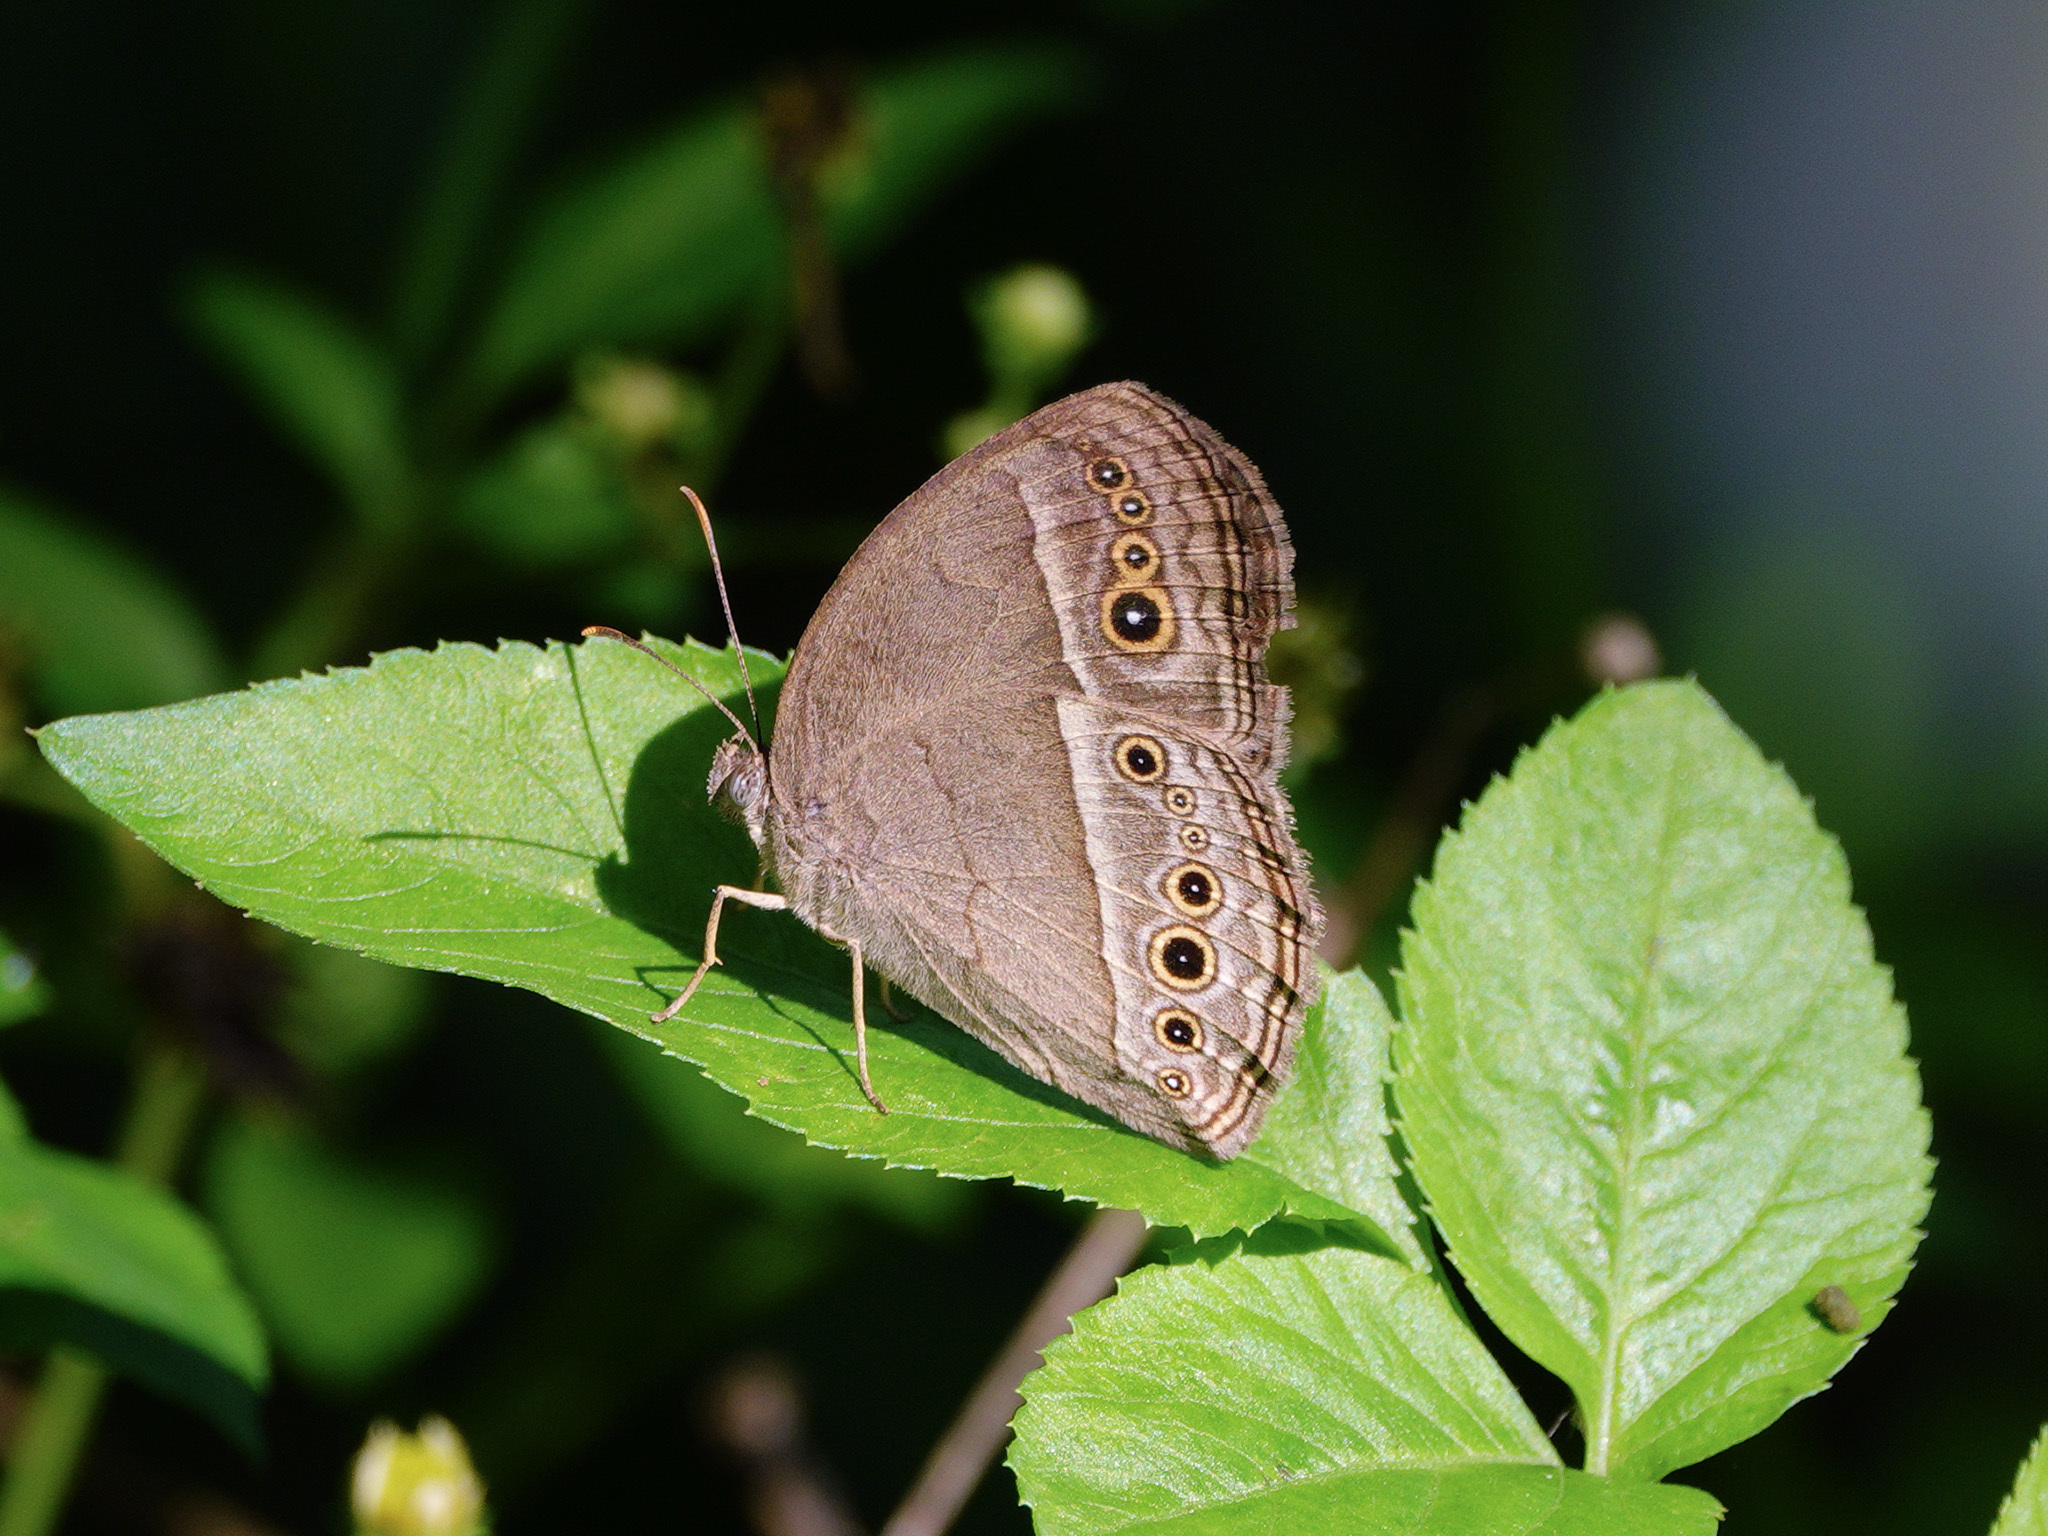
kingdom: Animalia
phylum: Arthropoda
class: Insecta
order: Lepidoptera
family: Nymphalidae
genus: Mycalesis
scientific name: Mycalesis perseoides
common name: Burmese bushbrown
